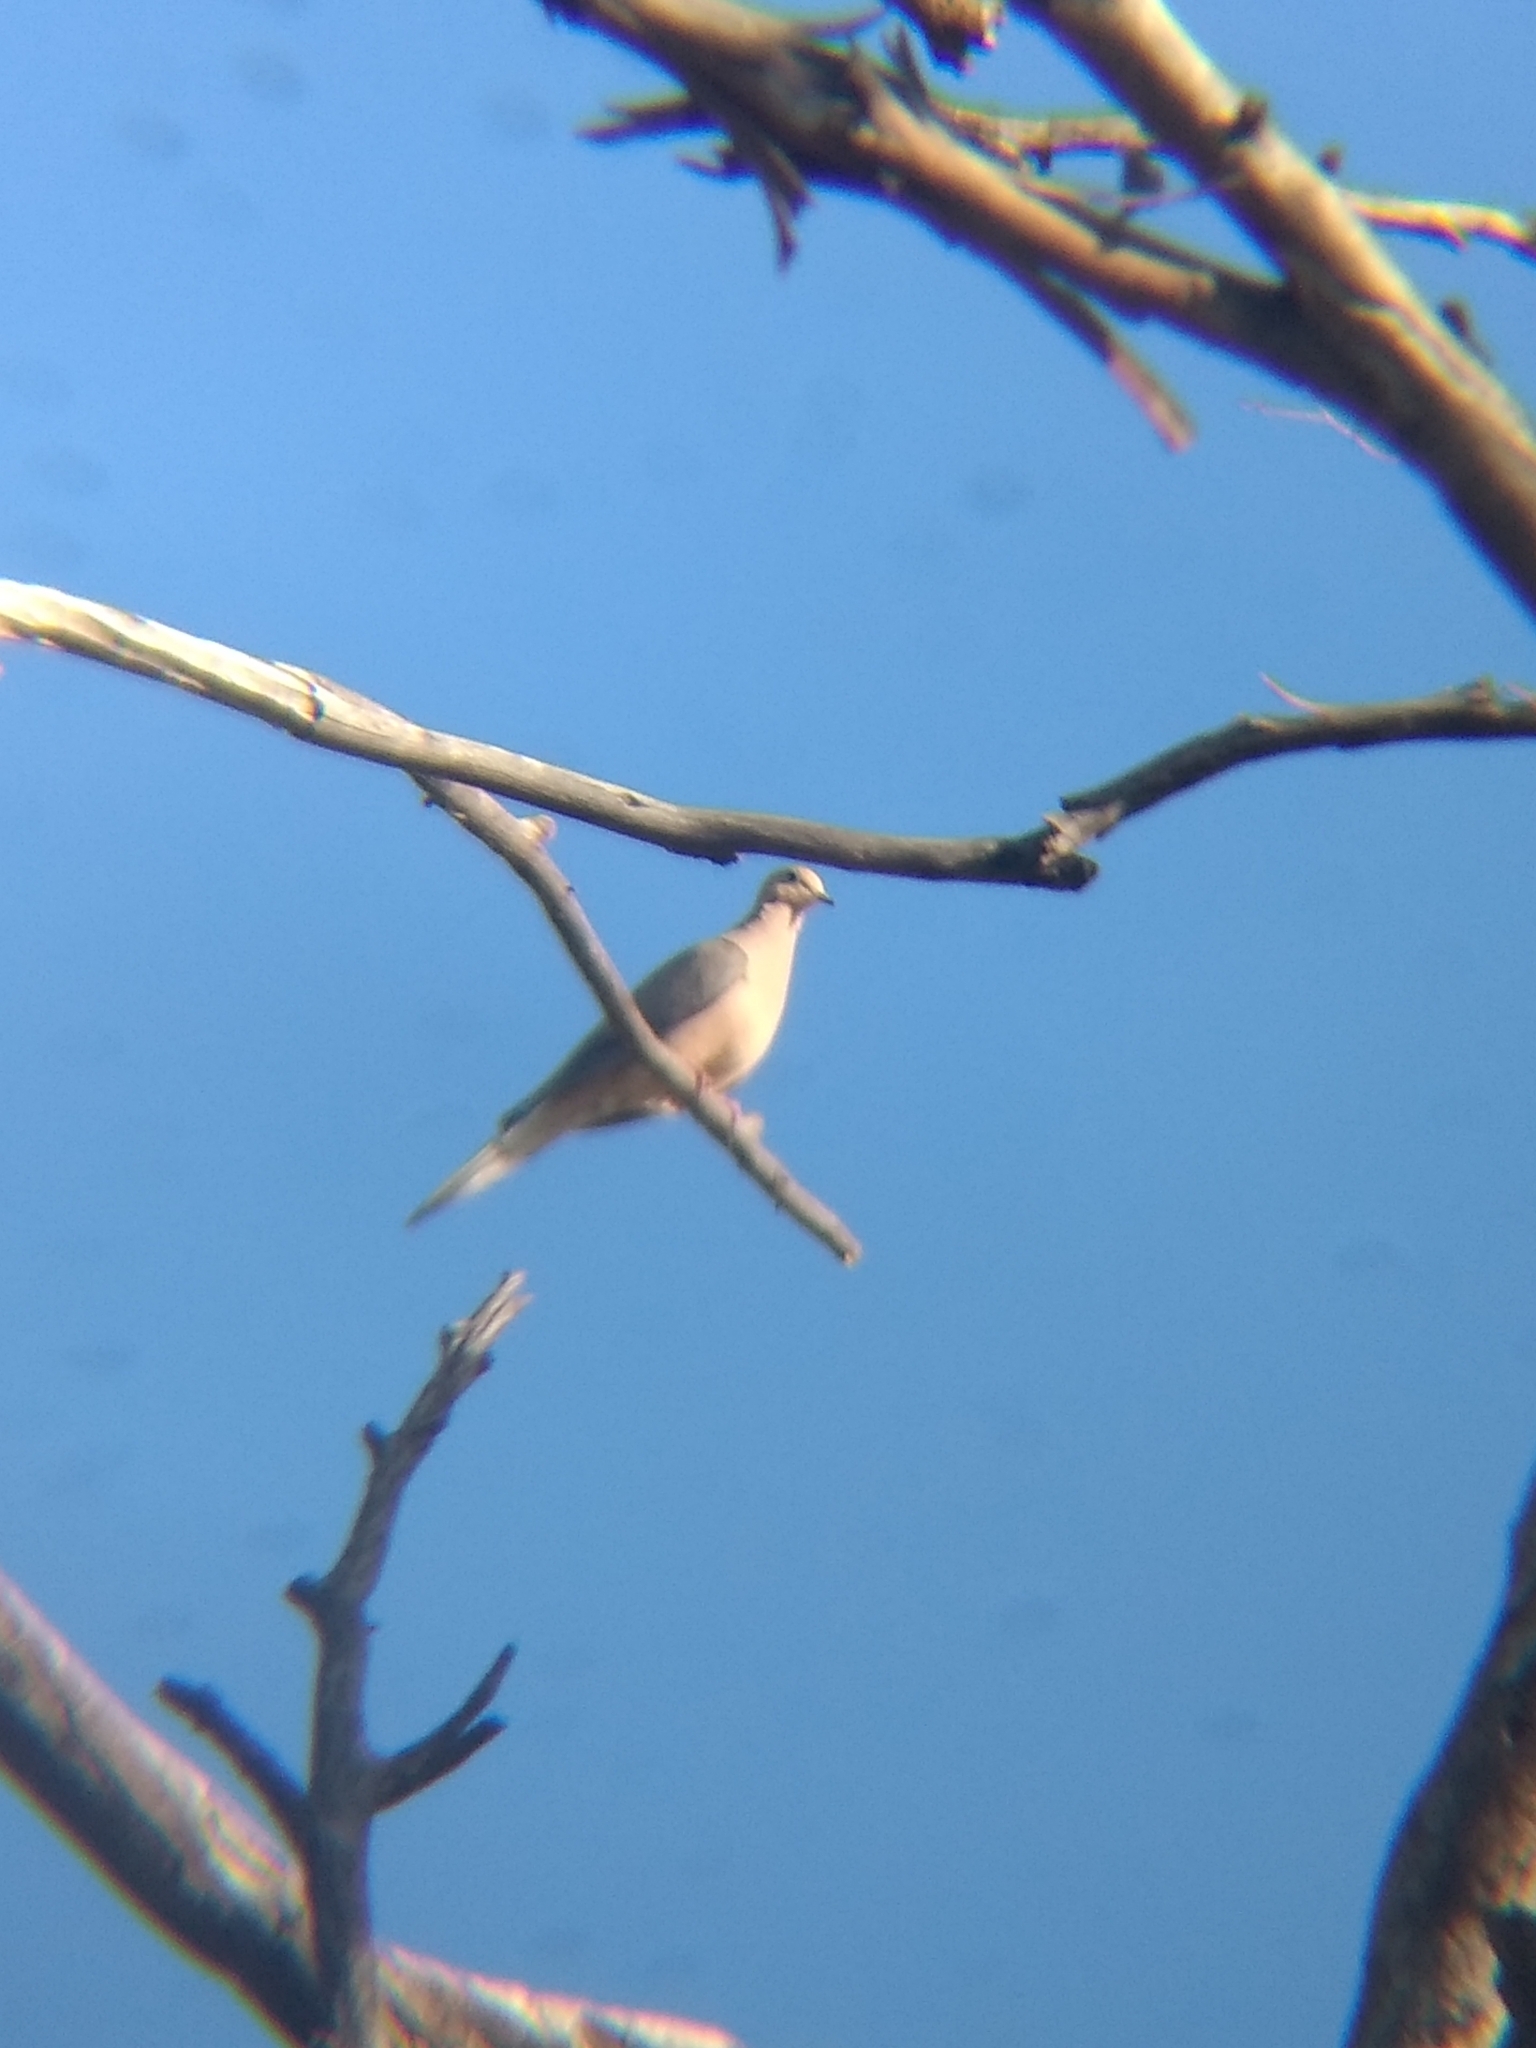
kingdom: Animalia
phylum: Chordata
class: Aves
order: Columbiformes
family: Columbidae
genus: Zenaida
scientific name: Zenaida macroura
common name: Mourning dove
